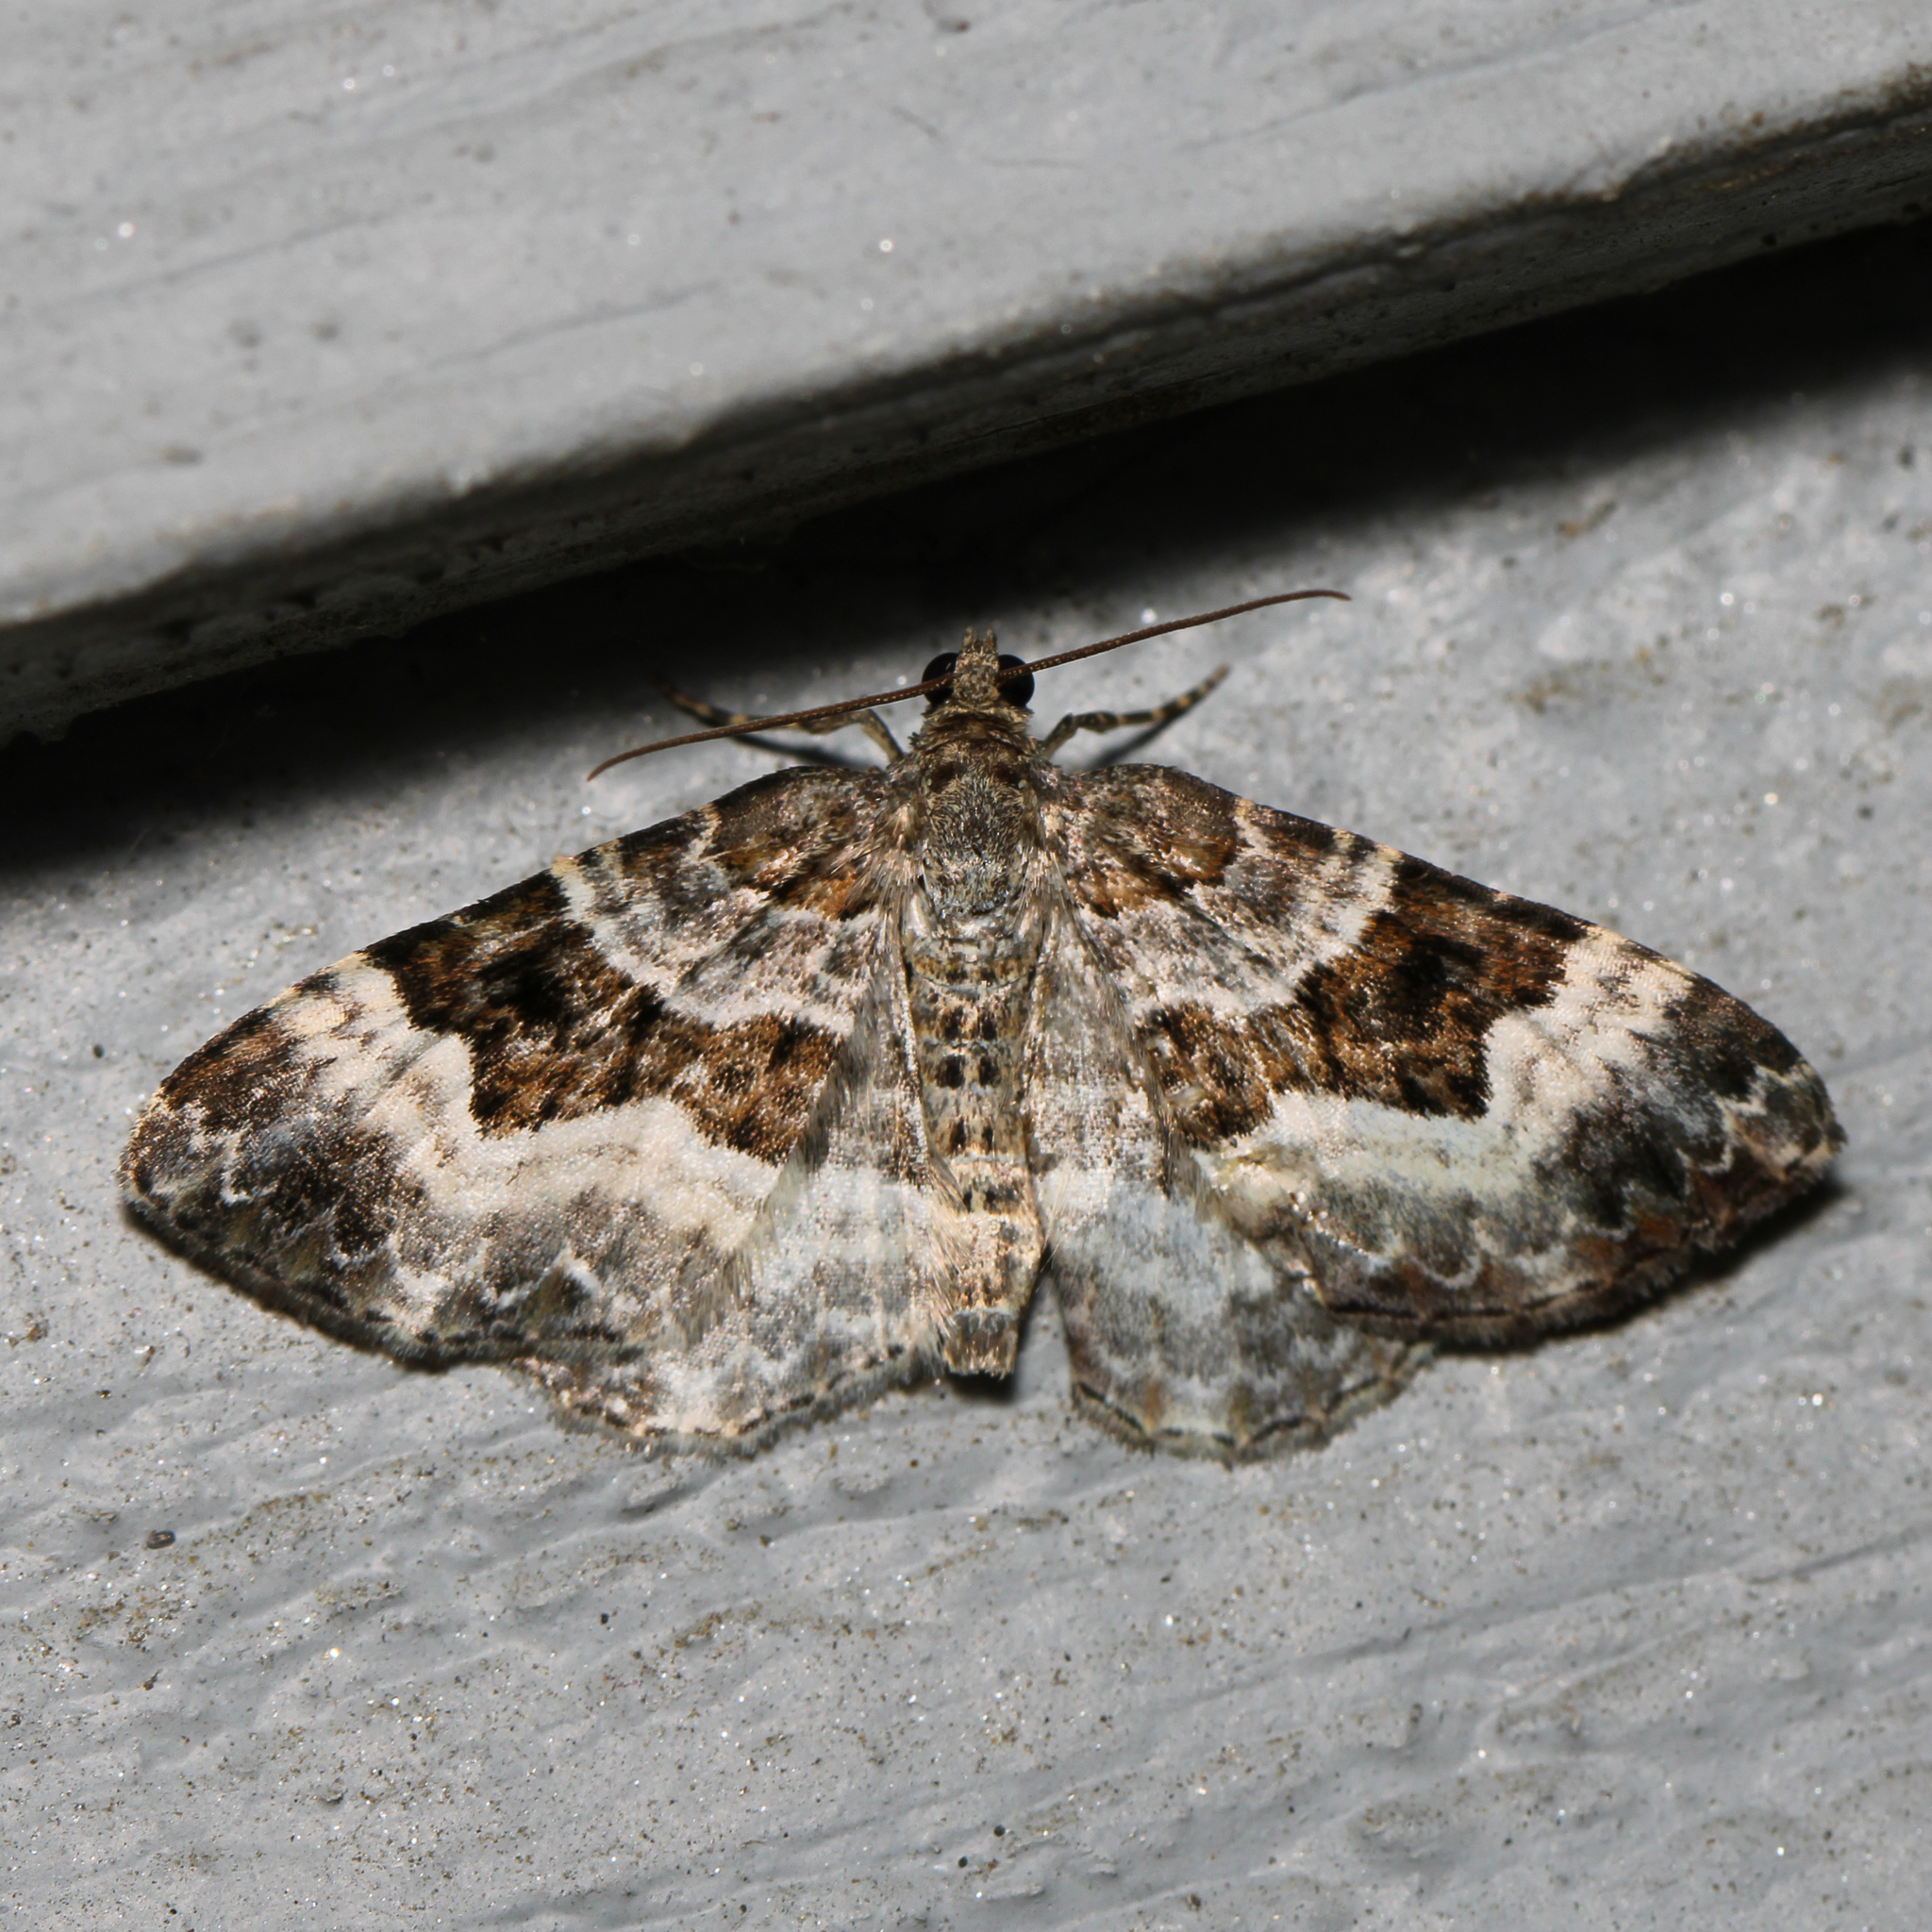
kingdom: Animalia
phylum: Arthropoda
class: Insecta
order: Lepidoptera
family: Geometridae
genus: Epirrhoe
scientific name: Epirrhoe alternata
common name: Common carpet
